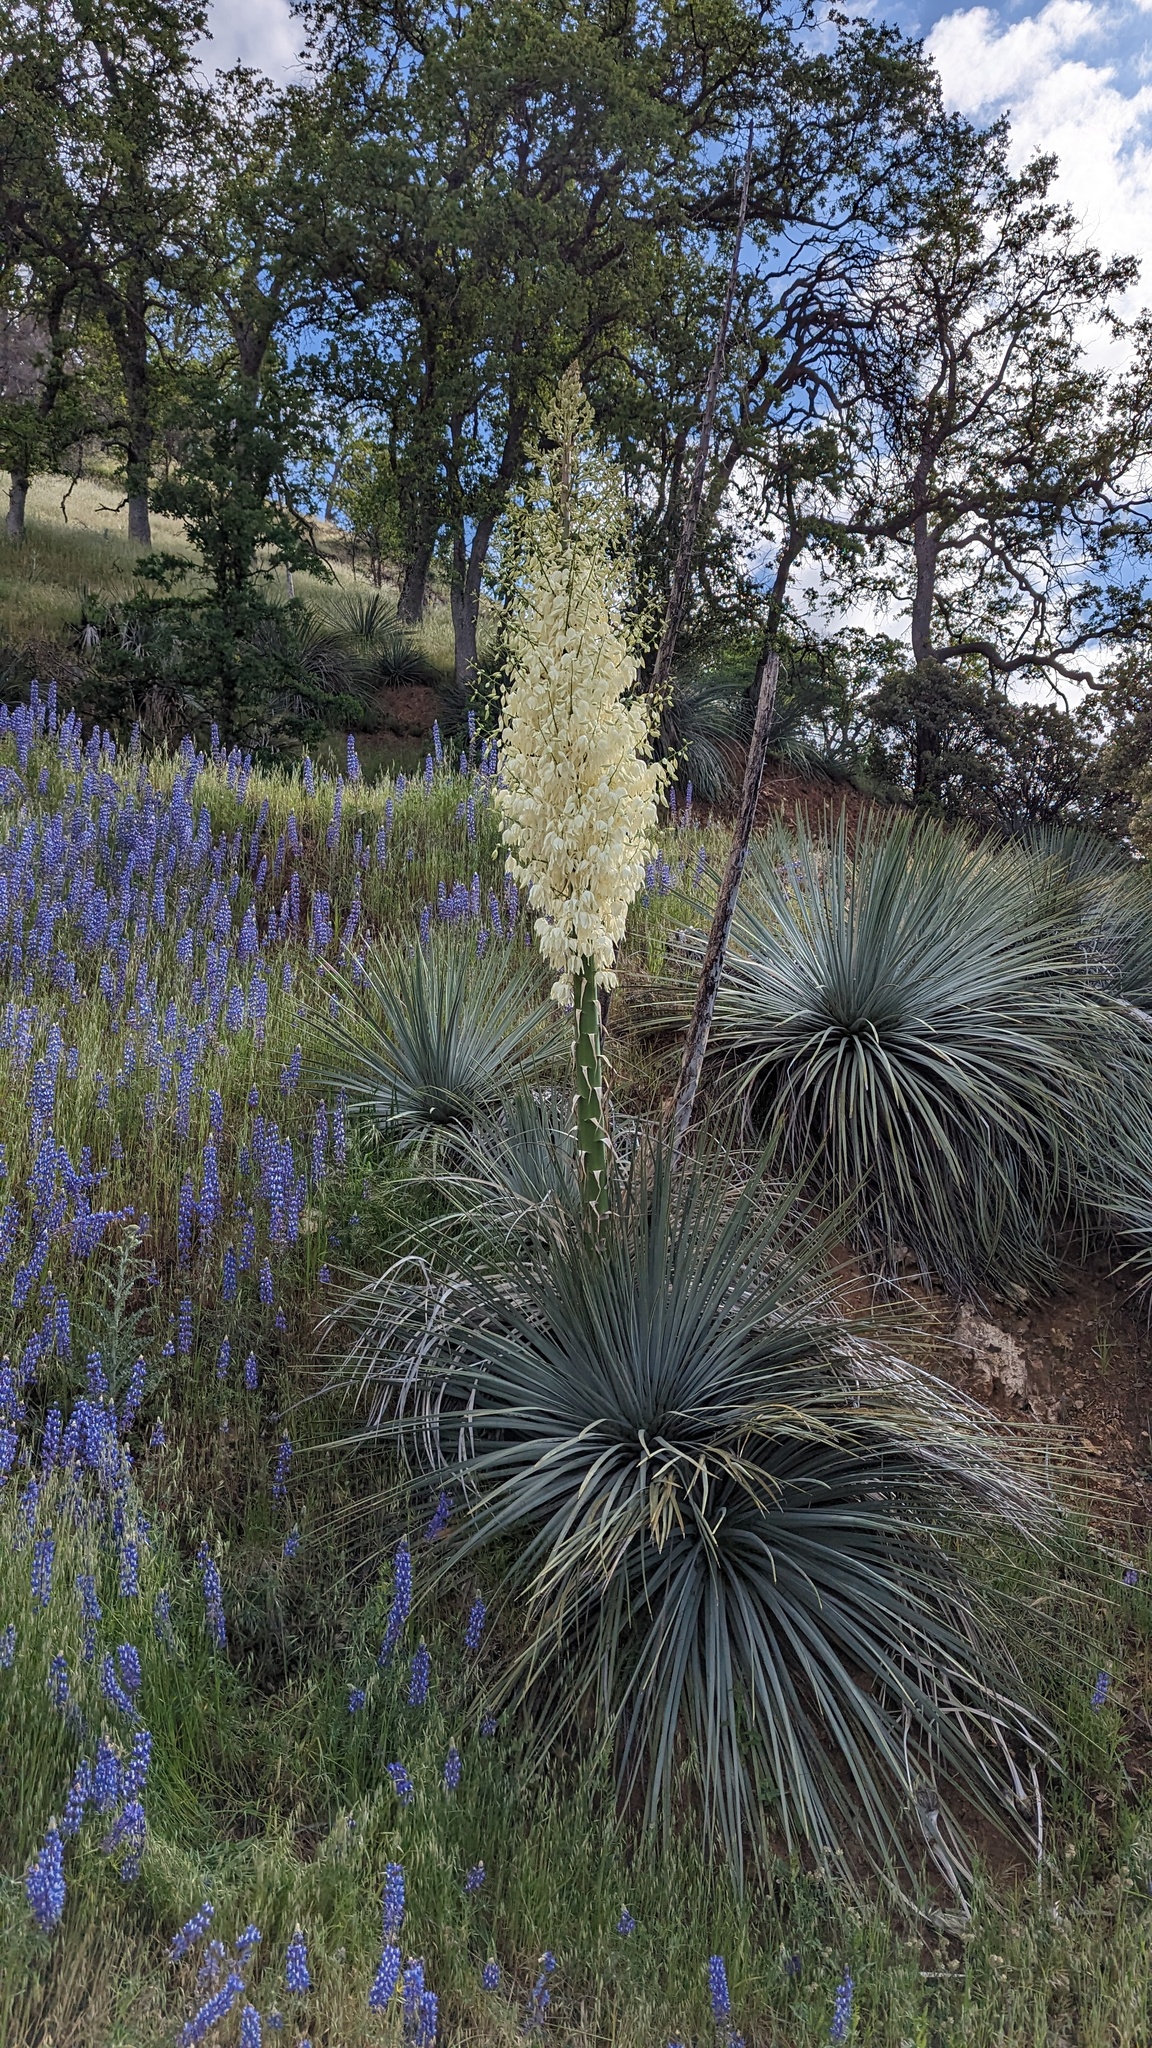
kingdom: Plantae
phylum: Tracheophyta
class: Liliopsida
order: Asparagales
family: Asparagaceae
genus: Hesperoyucca
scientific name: Hesperoyucca whipplei
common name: Our lord's-candle
